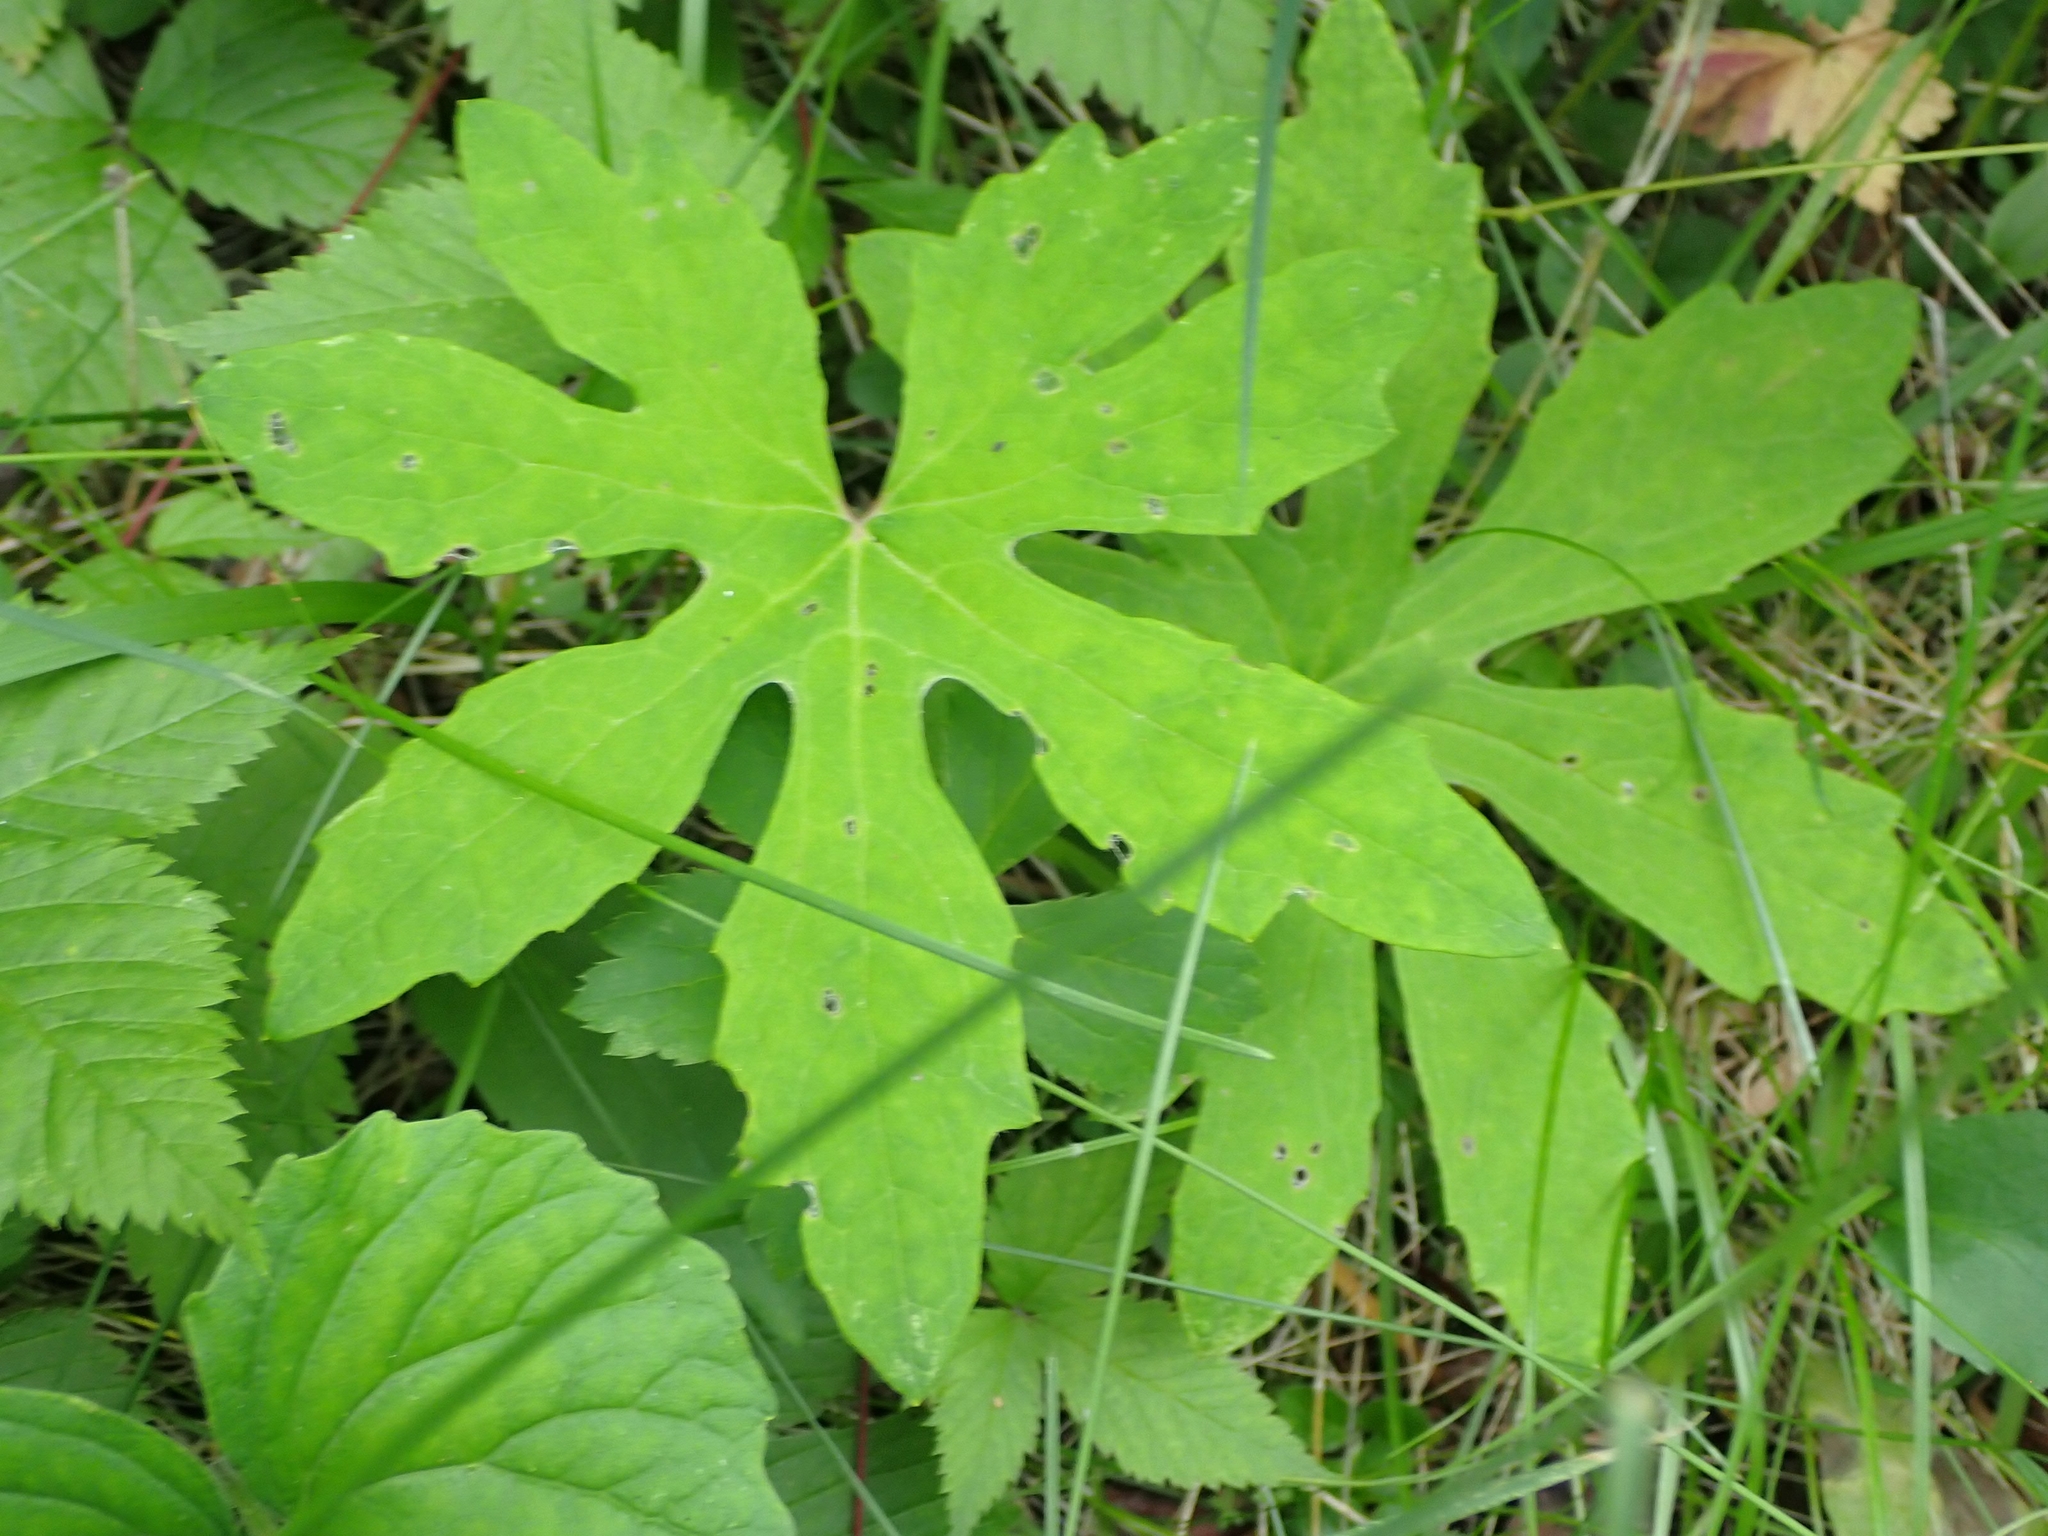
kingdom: Plantae
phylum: Tracheophyta
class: Magnoliopsida
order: Asterales
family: Asteraceae
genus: Petasites
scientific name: Petasites frigidus
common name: Arctic butterbur
